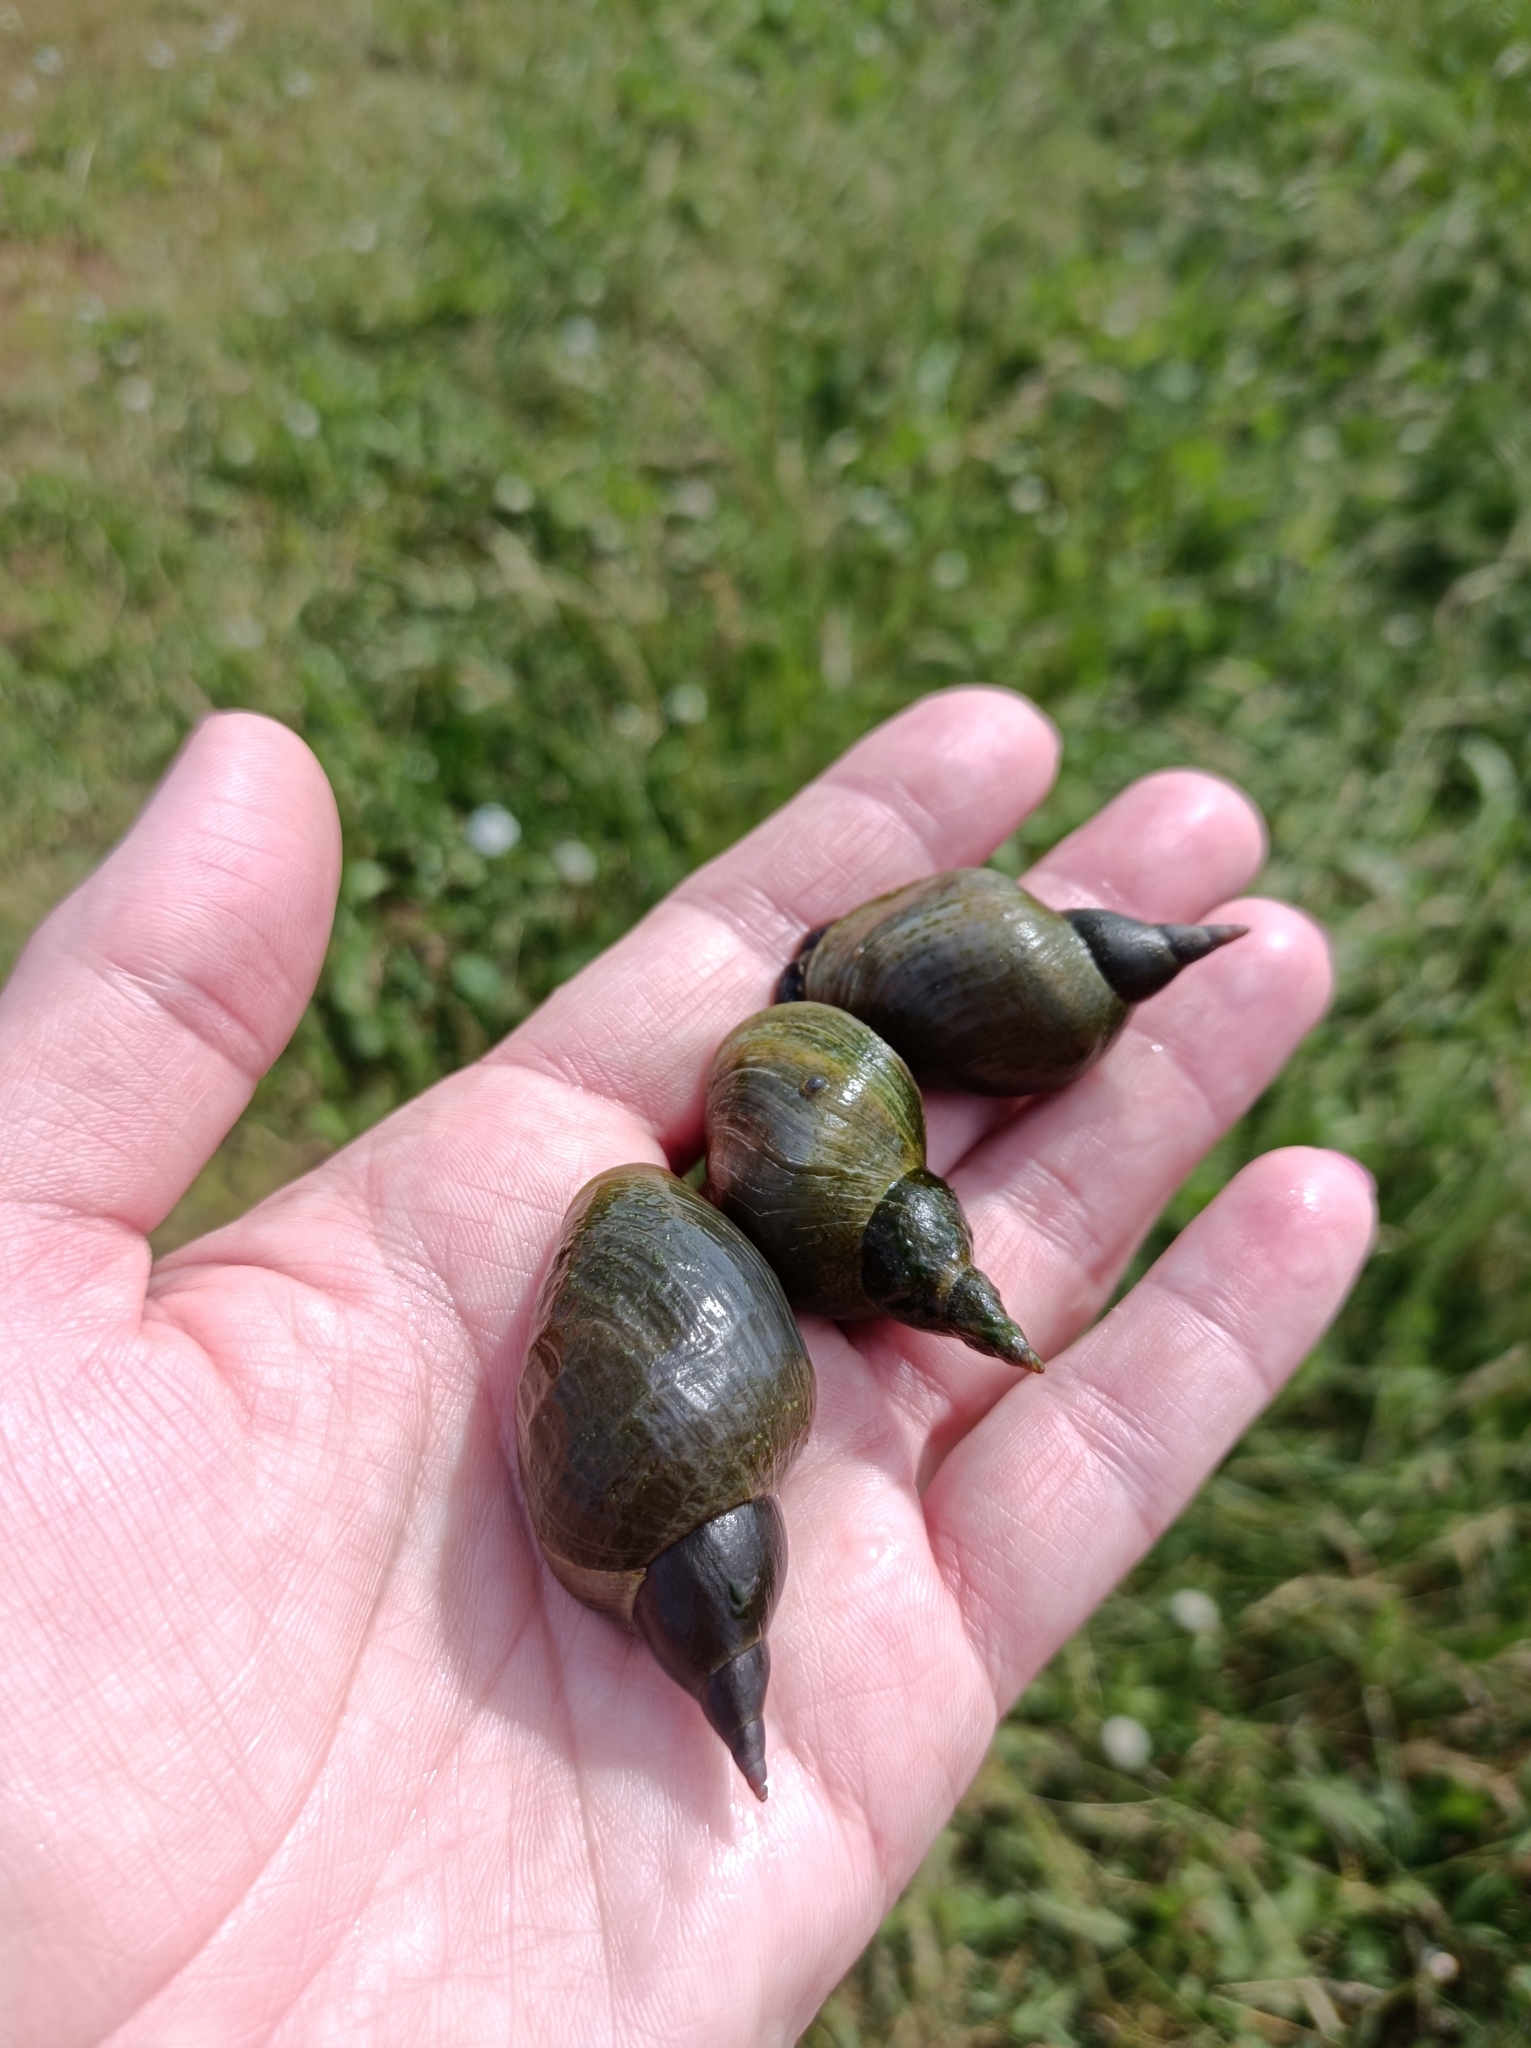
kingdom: Animalia
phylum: Mollusca
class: Gastropoda
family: Lymnaeidae
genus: Lymnaea
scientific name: Lymnaea stagnalis
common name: Great pond snail
